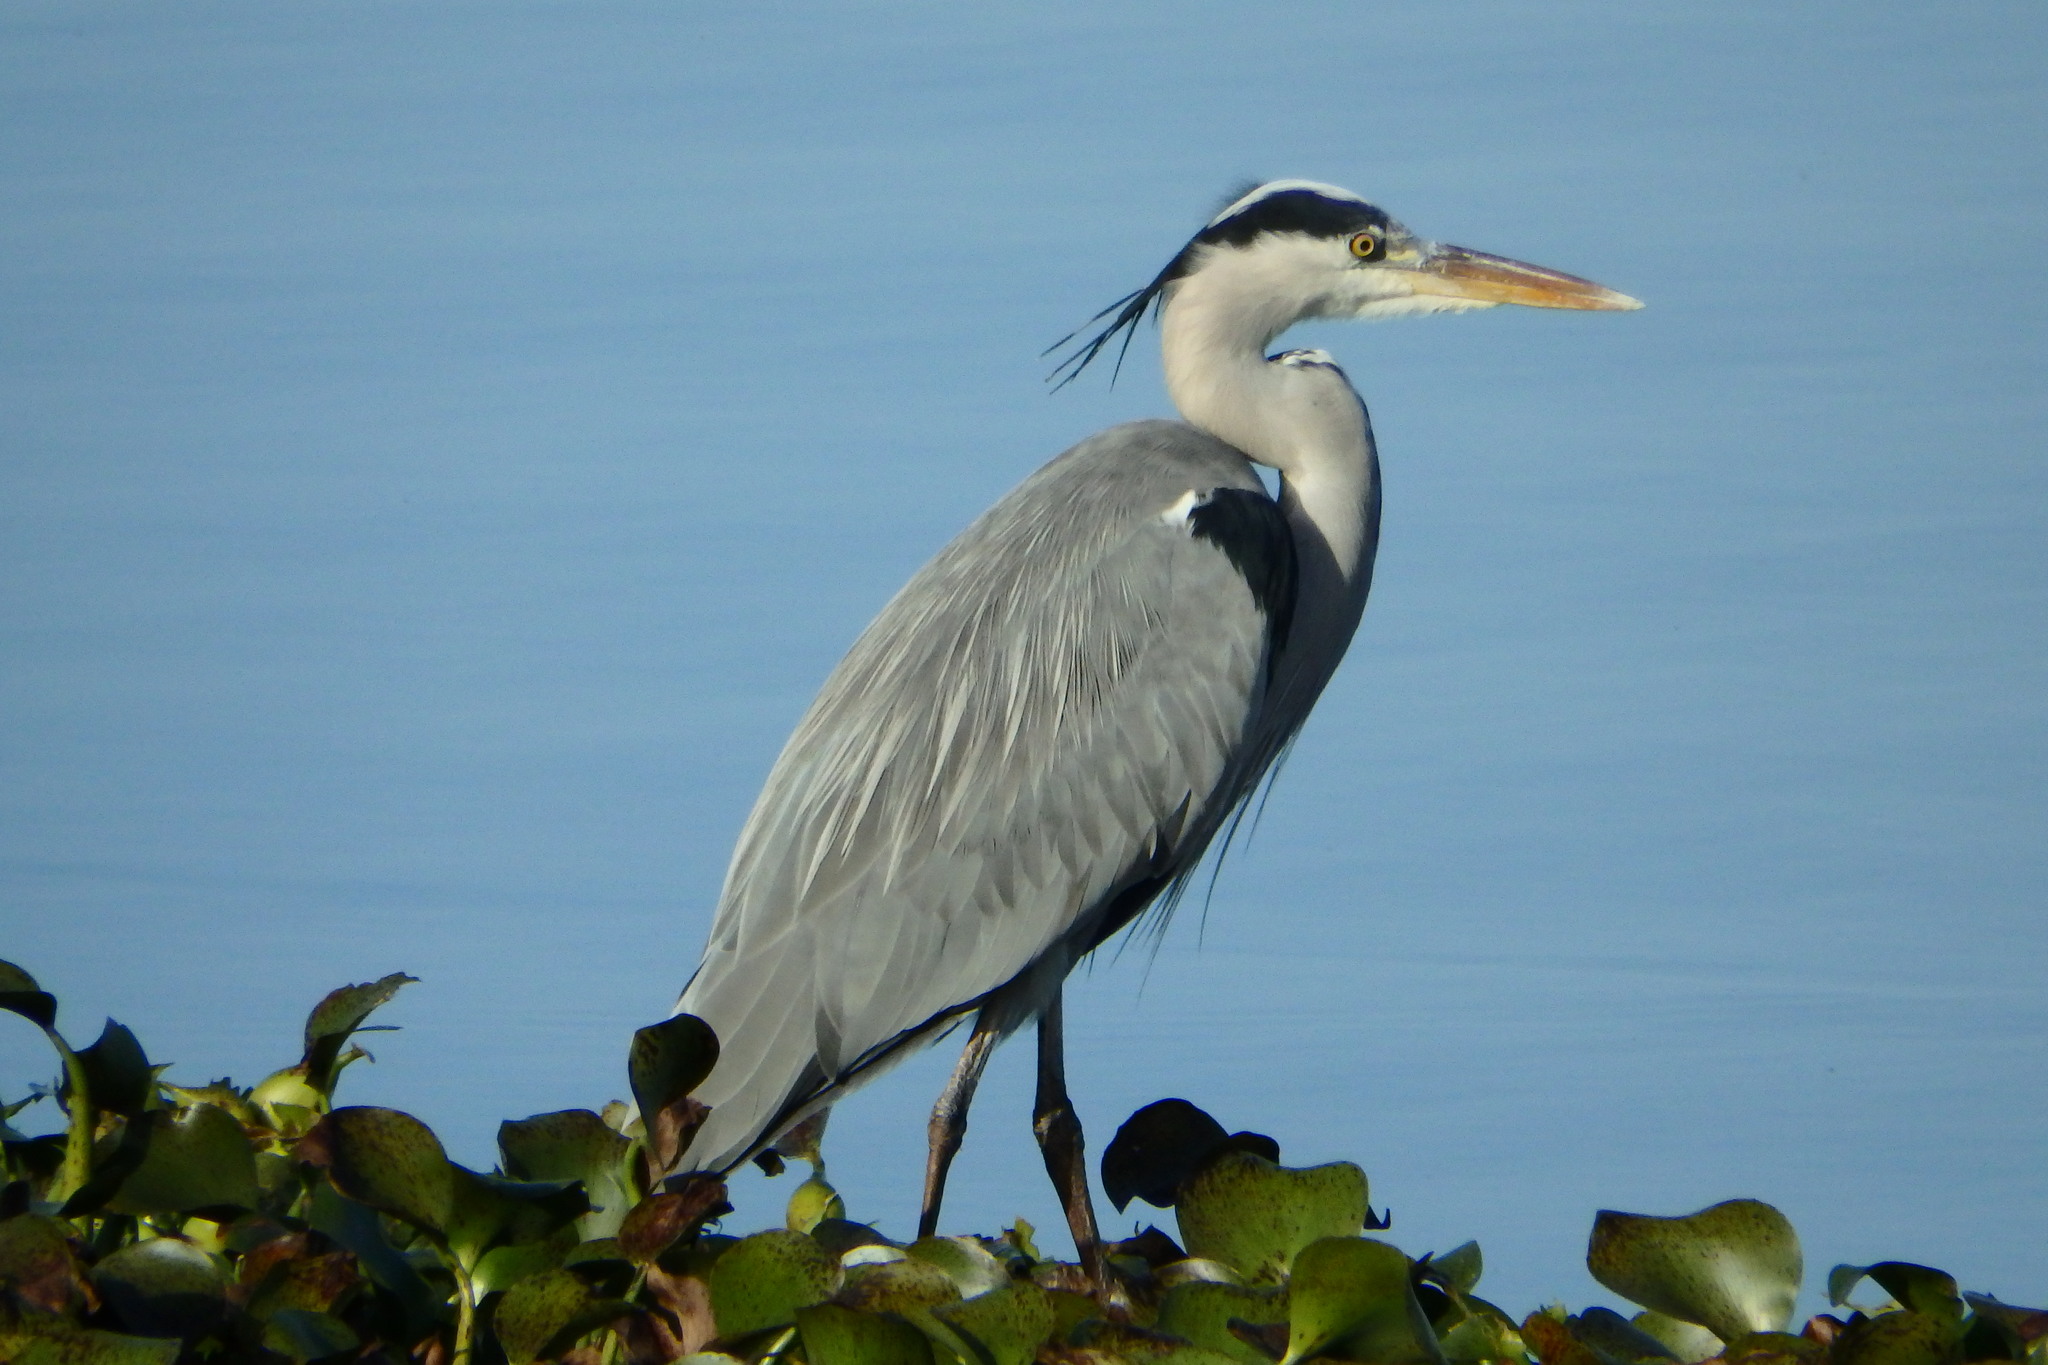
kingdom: Animalia
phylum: Chordata
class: Aves
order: Pelecaniformes
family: Ardeidae
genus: Ardea
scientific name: Ardea cinerea
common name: Grey heron
